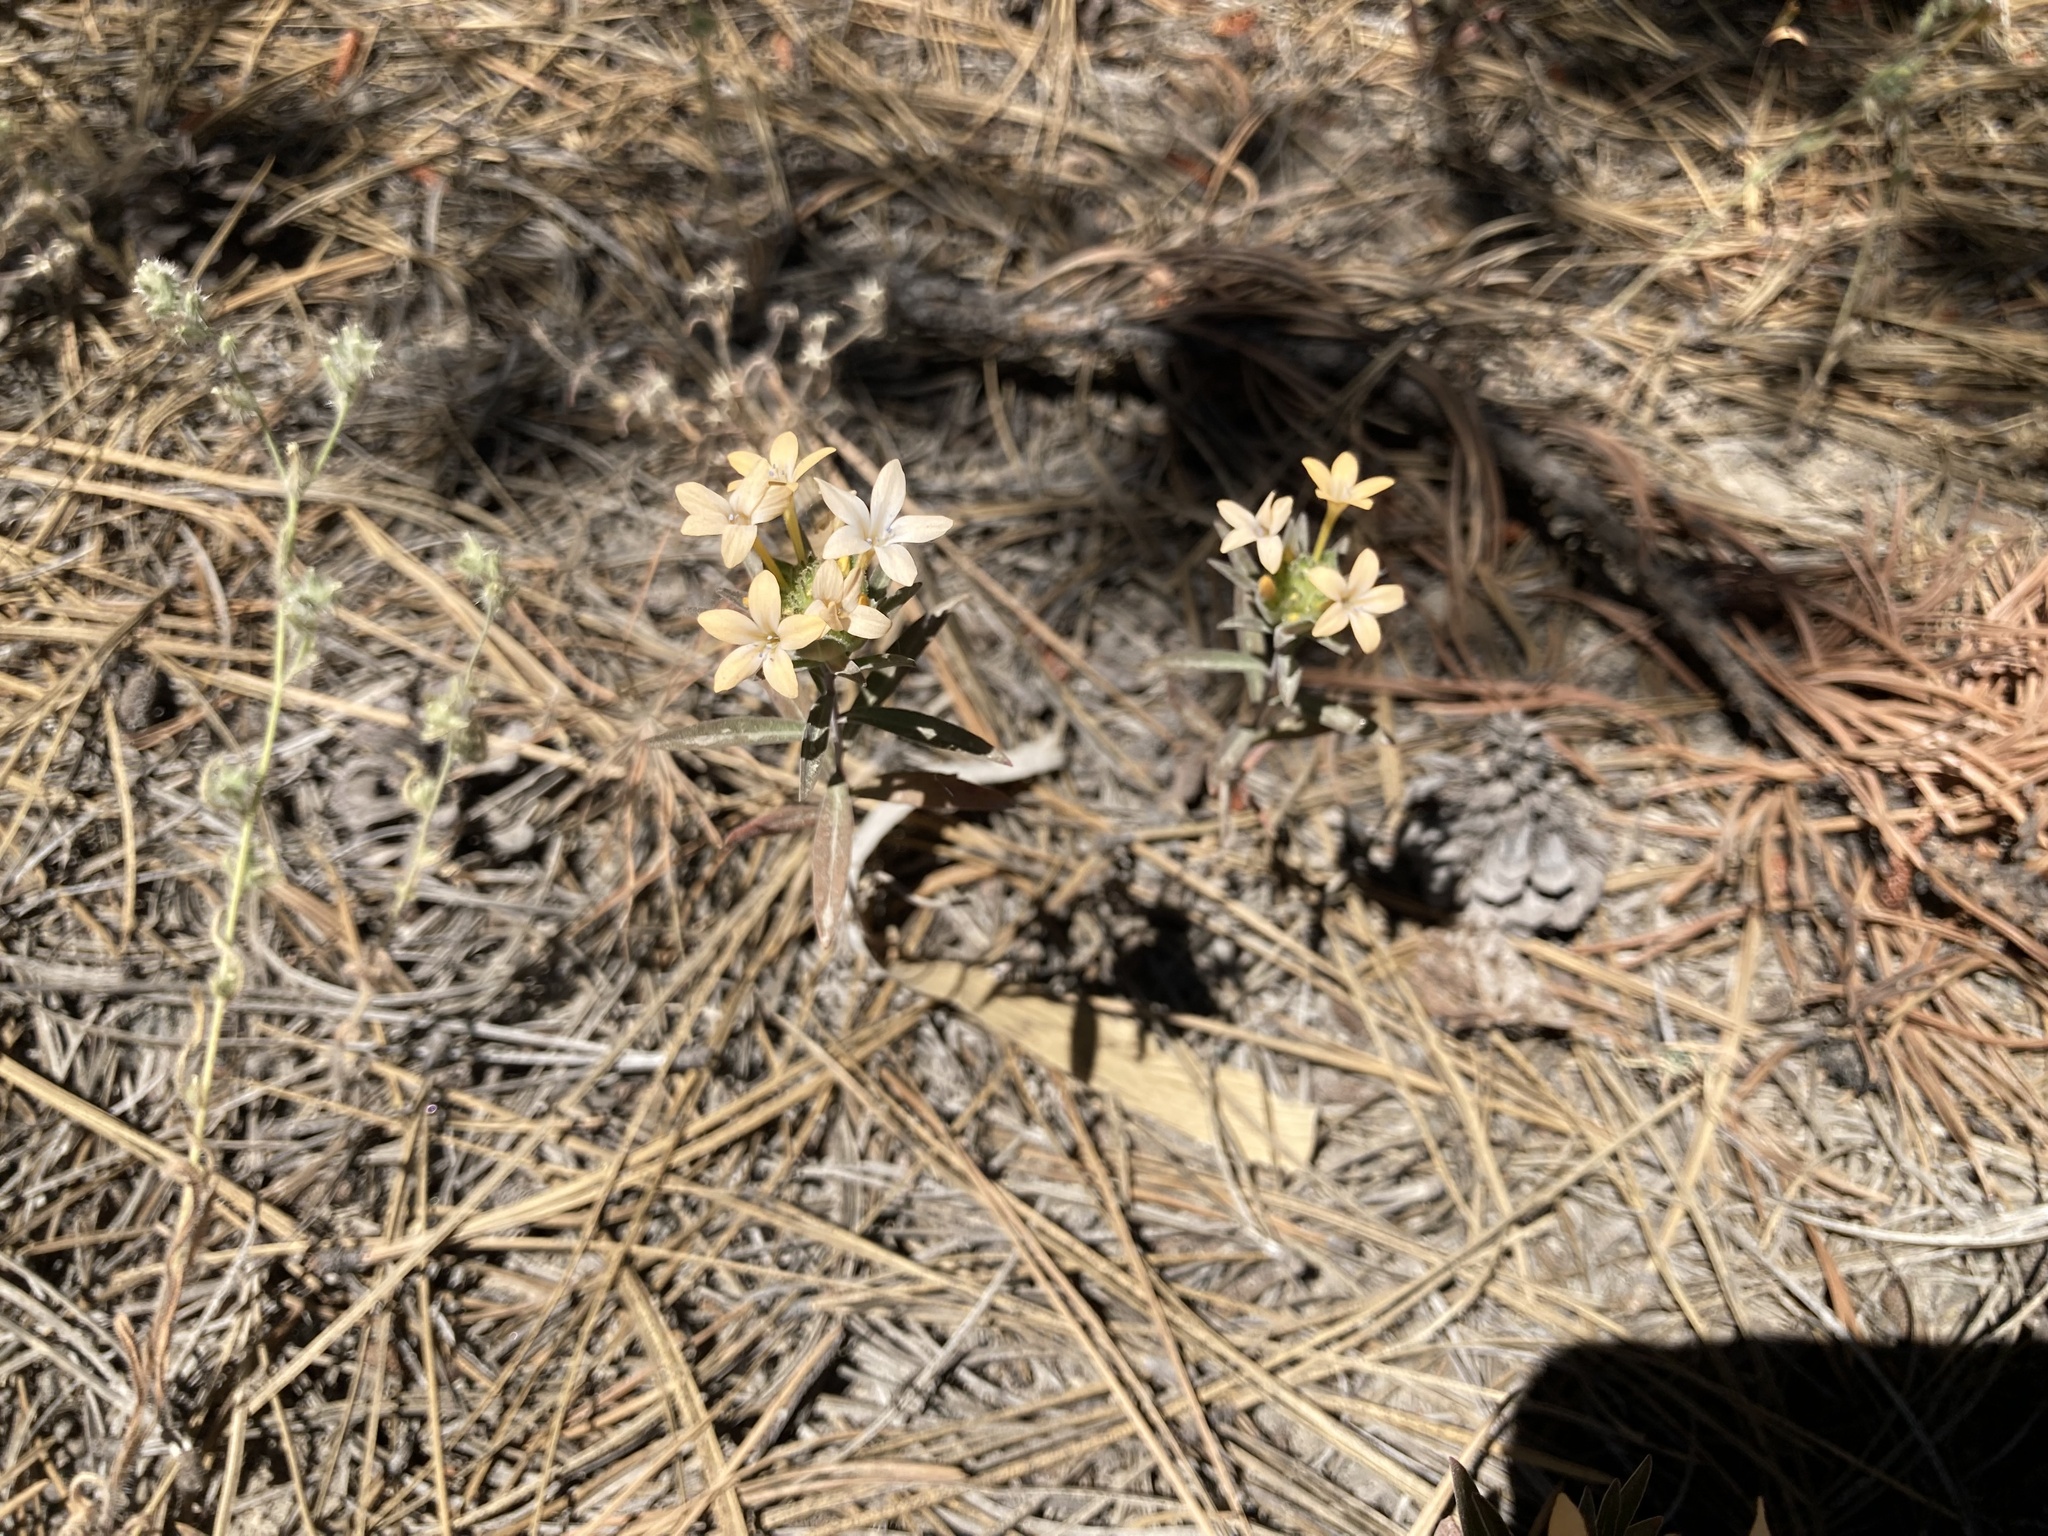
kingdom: Plantae
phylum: Tracheophyta
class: Magnoliopsida
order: Ericales
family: Polemoniaceae
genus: Collomia
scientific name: Collomia grandiflora
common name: California strawflower
